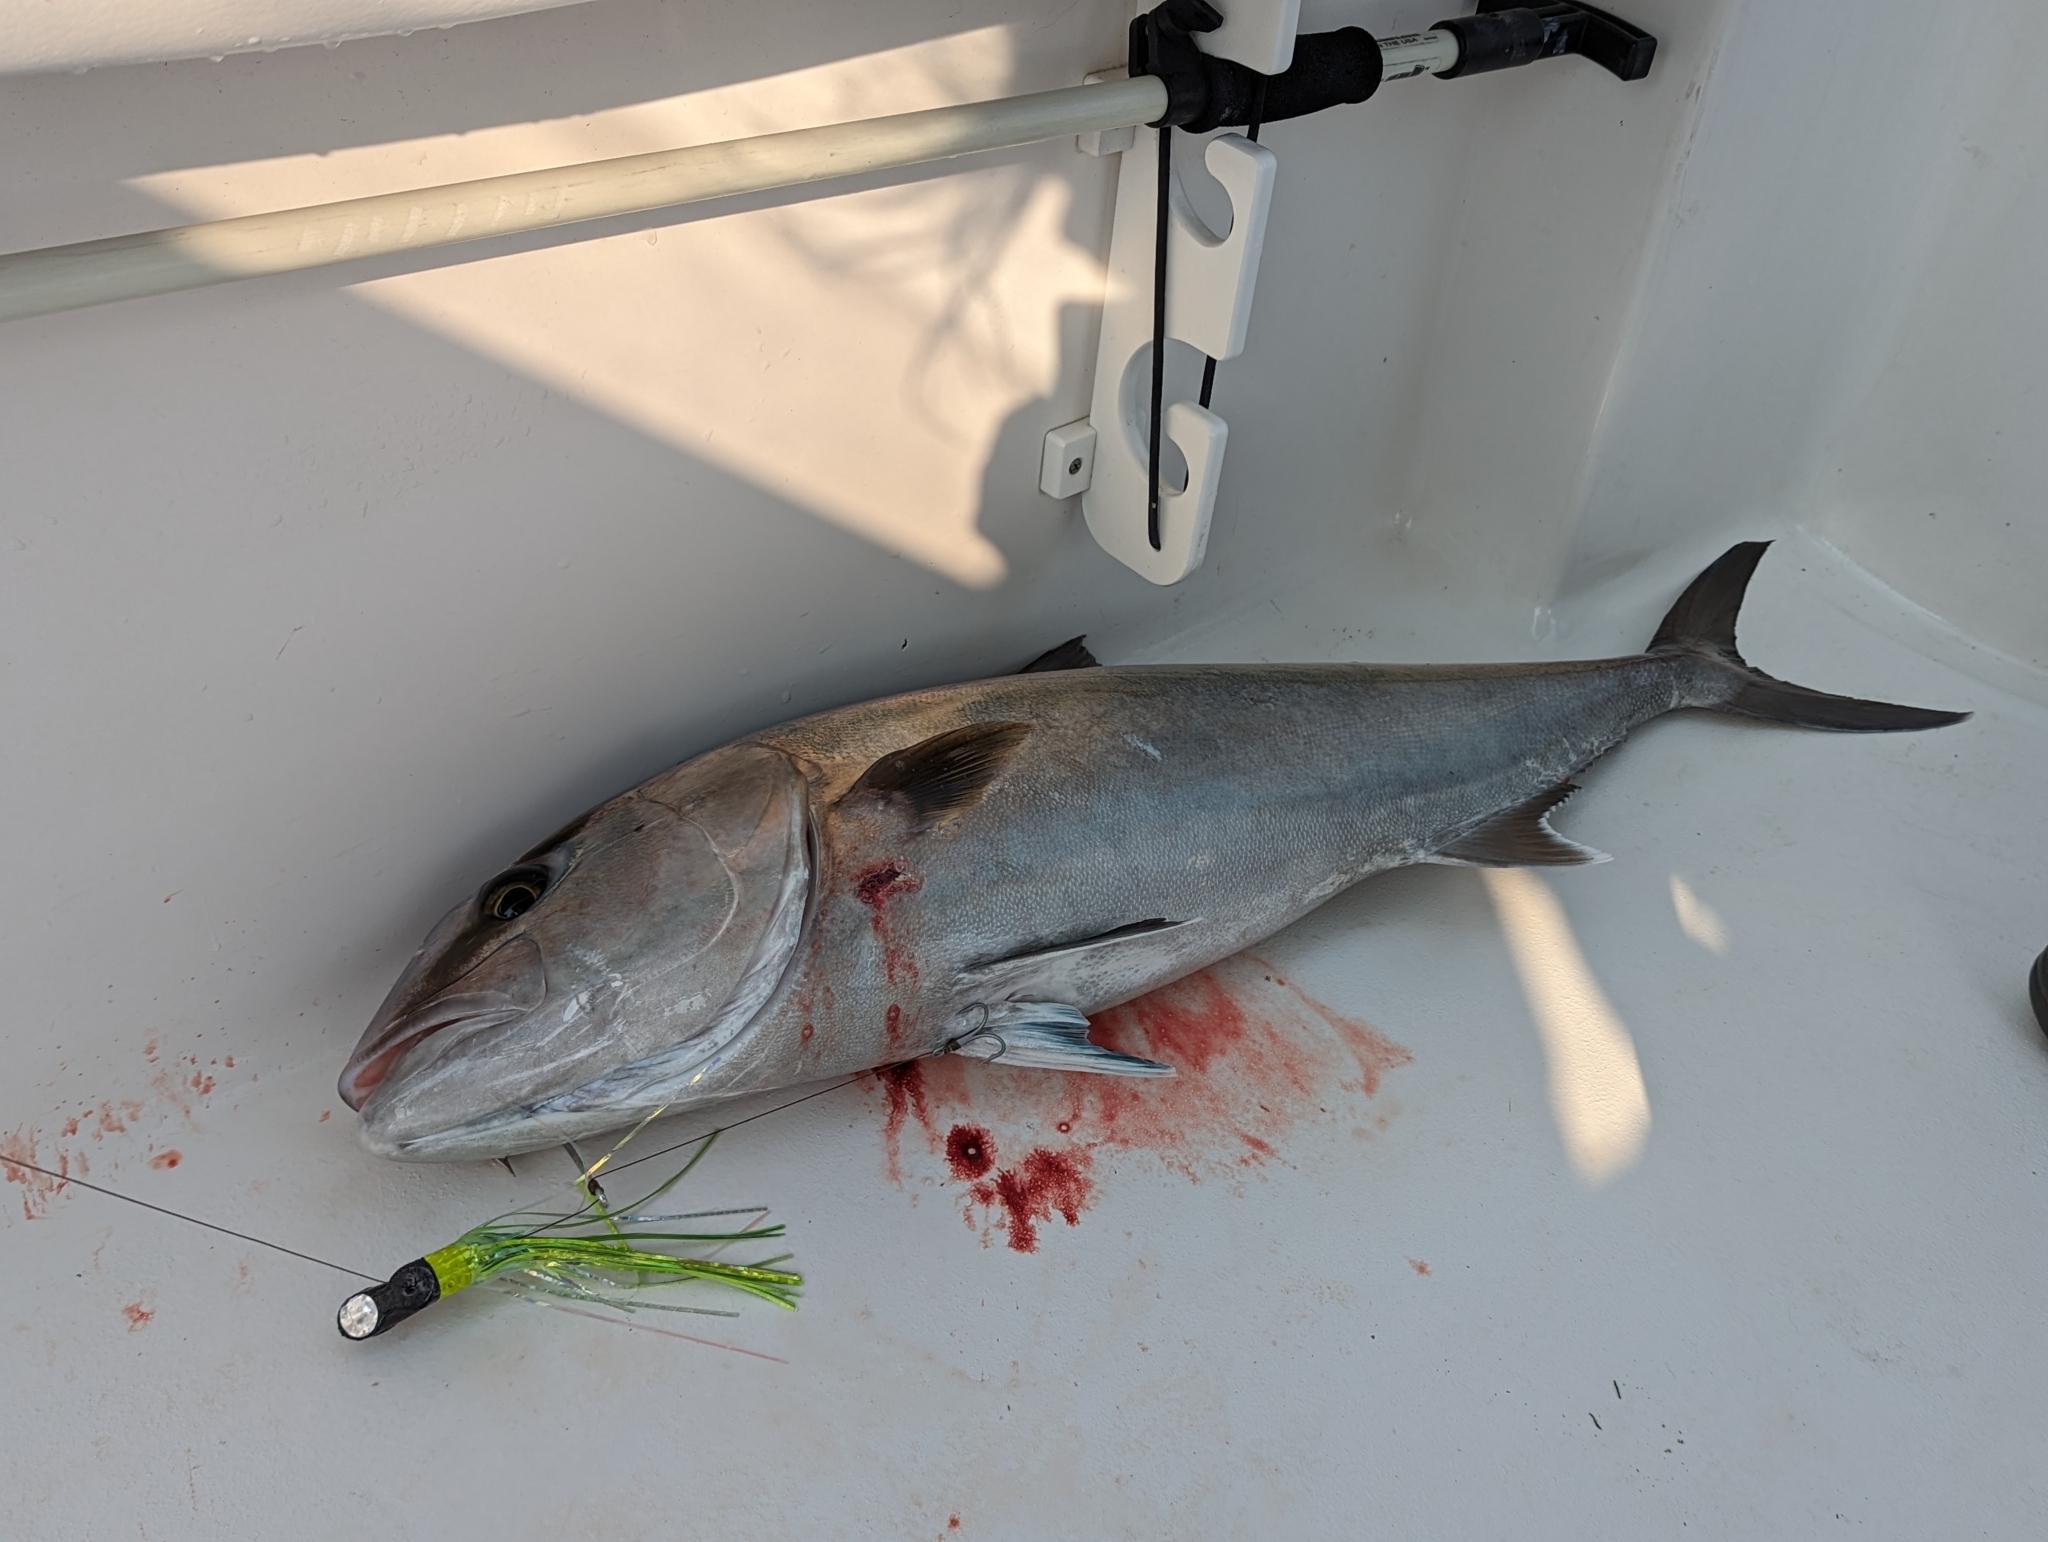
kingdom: Animalia
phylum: Chordata
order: Perciformes
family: Carangidae
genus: Seriola
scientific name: Seriola dumerili
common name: Greater amberjack
